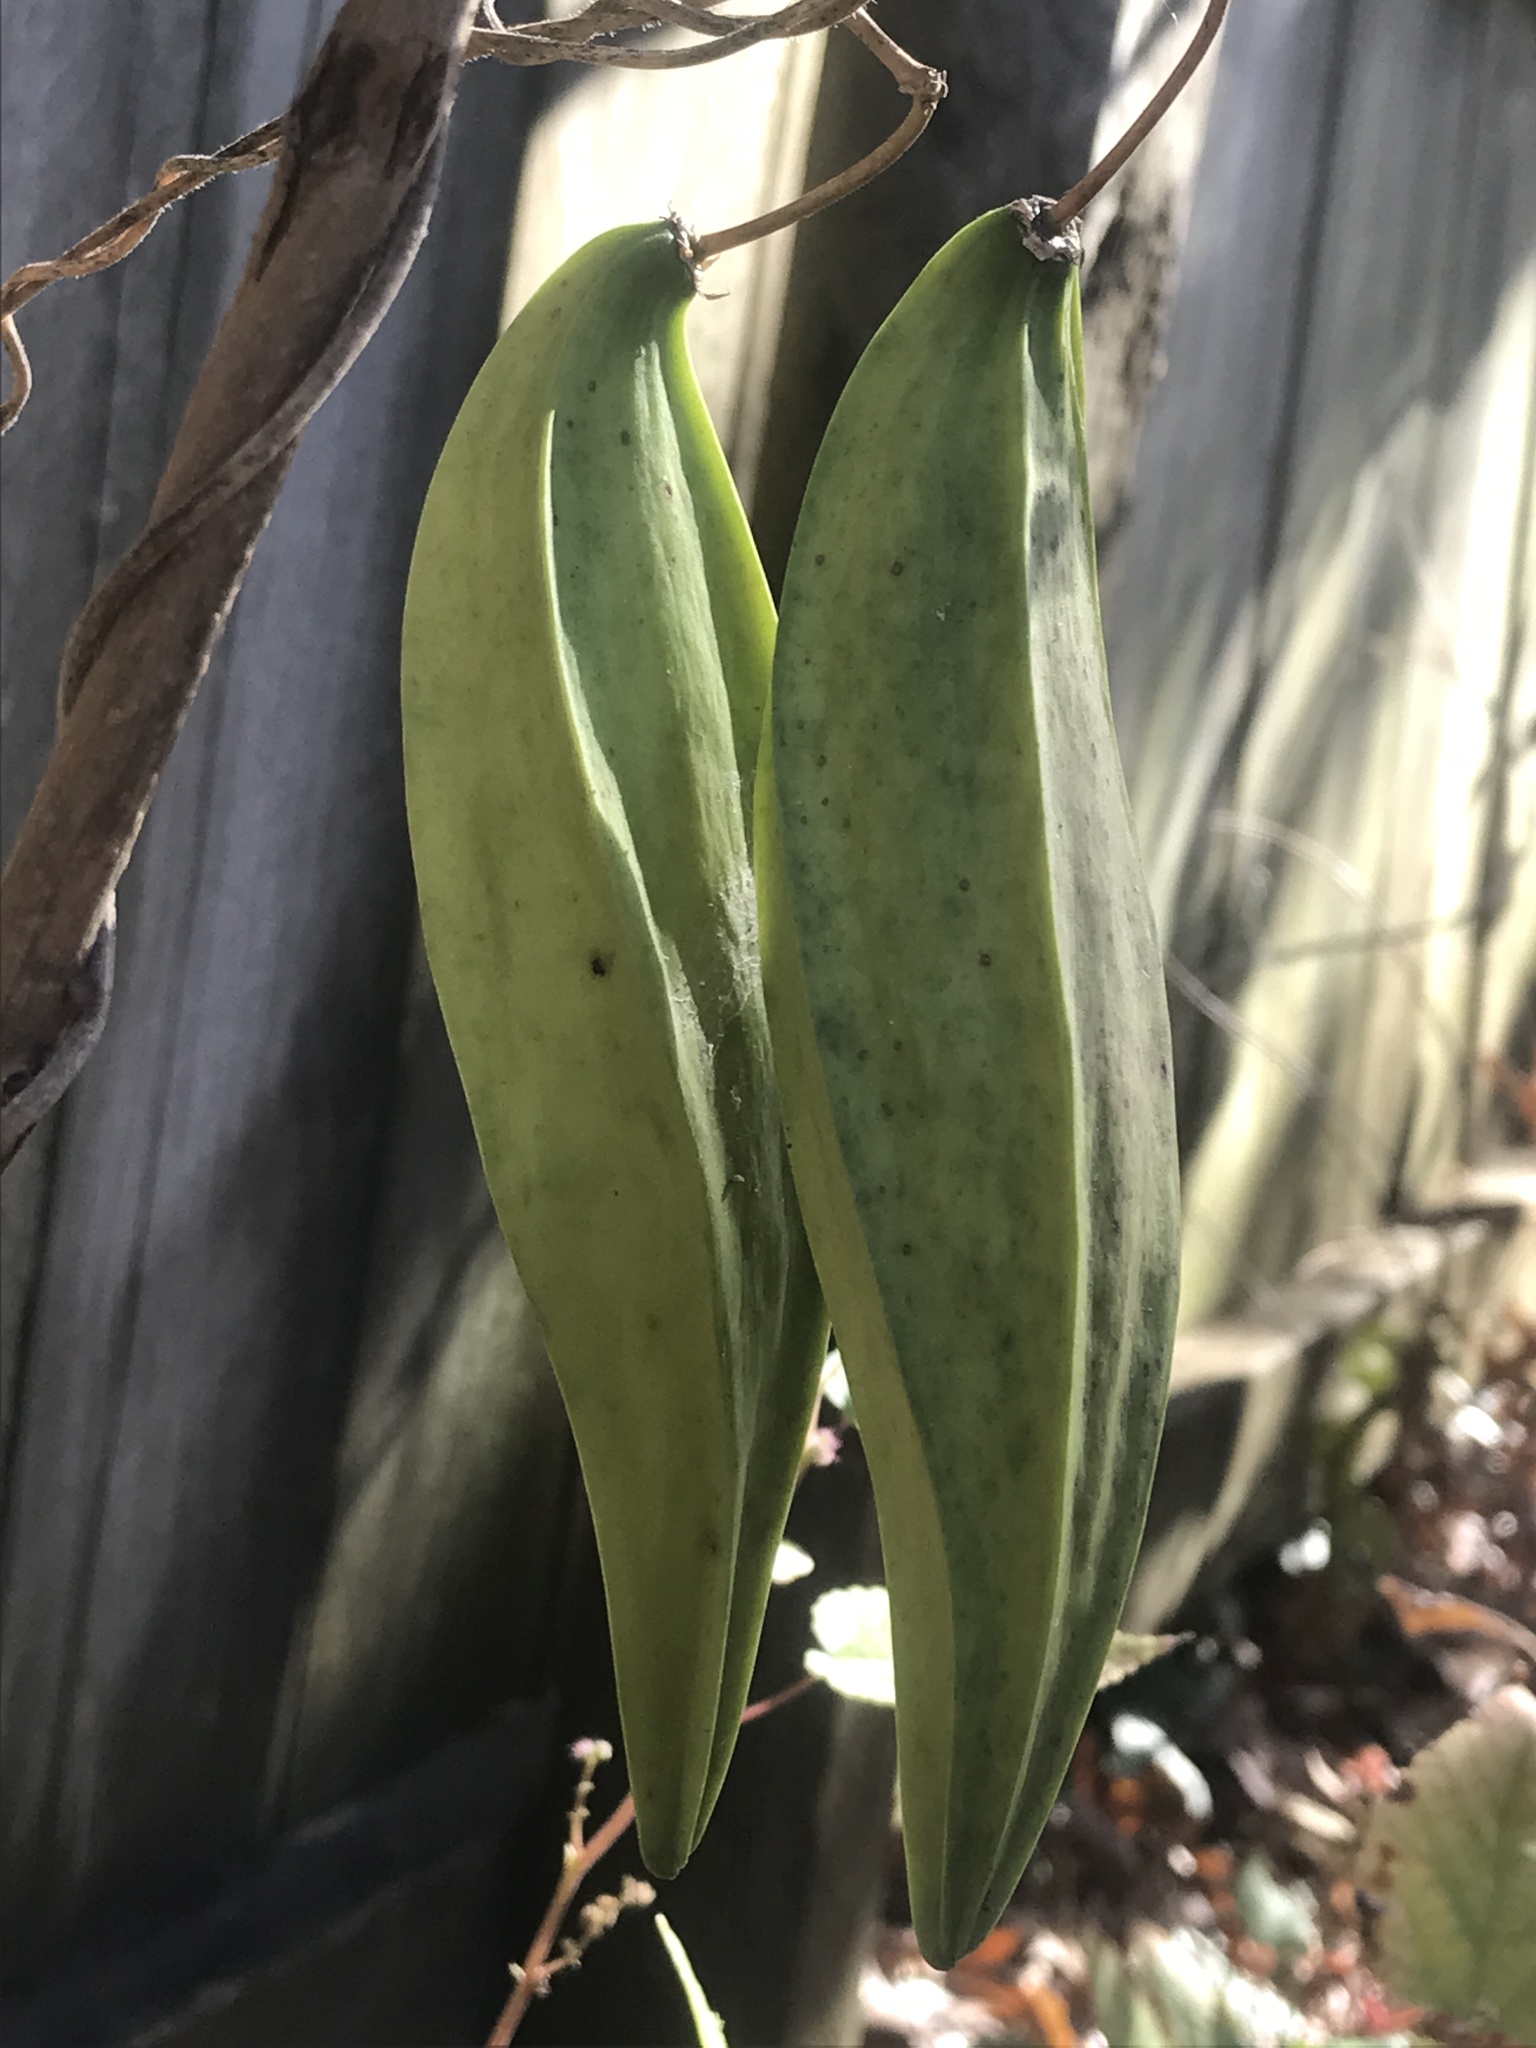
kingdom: Plantae
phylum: Tracheophyta
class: Magnoliopsida
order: Gentianales
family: Apocynaceae
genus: Gonolobus
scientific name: Gonolobus suberosus
